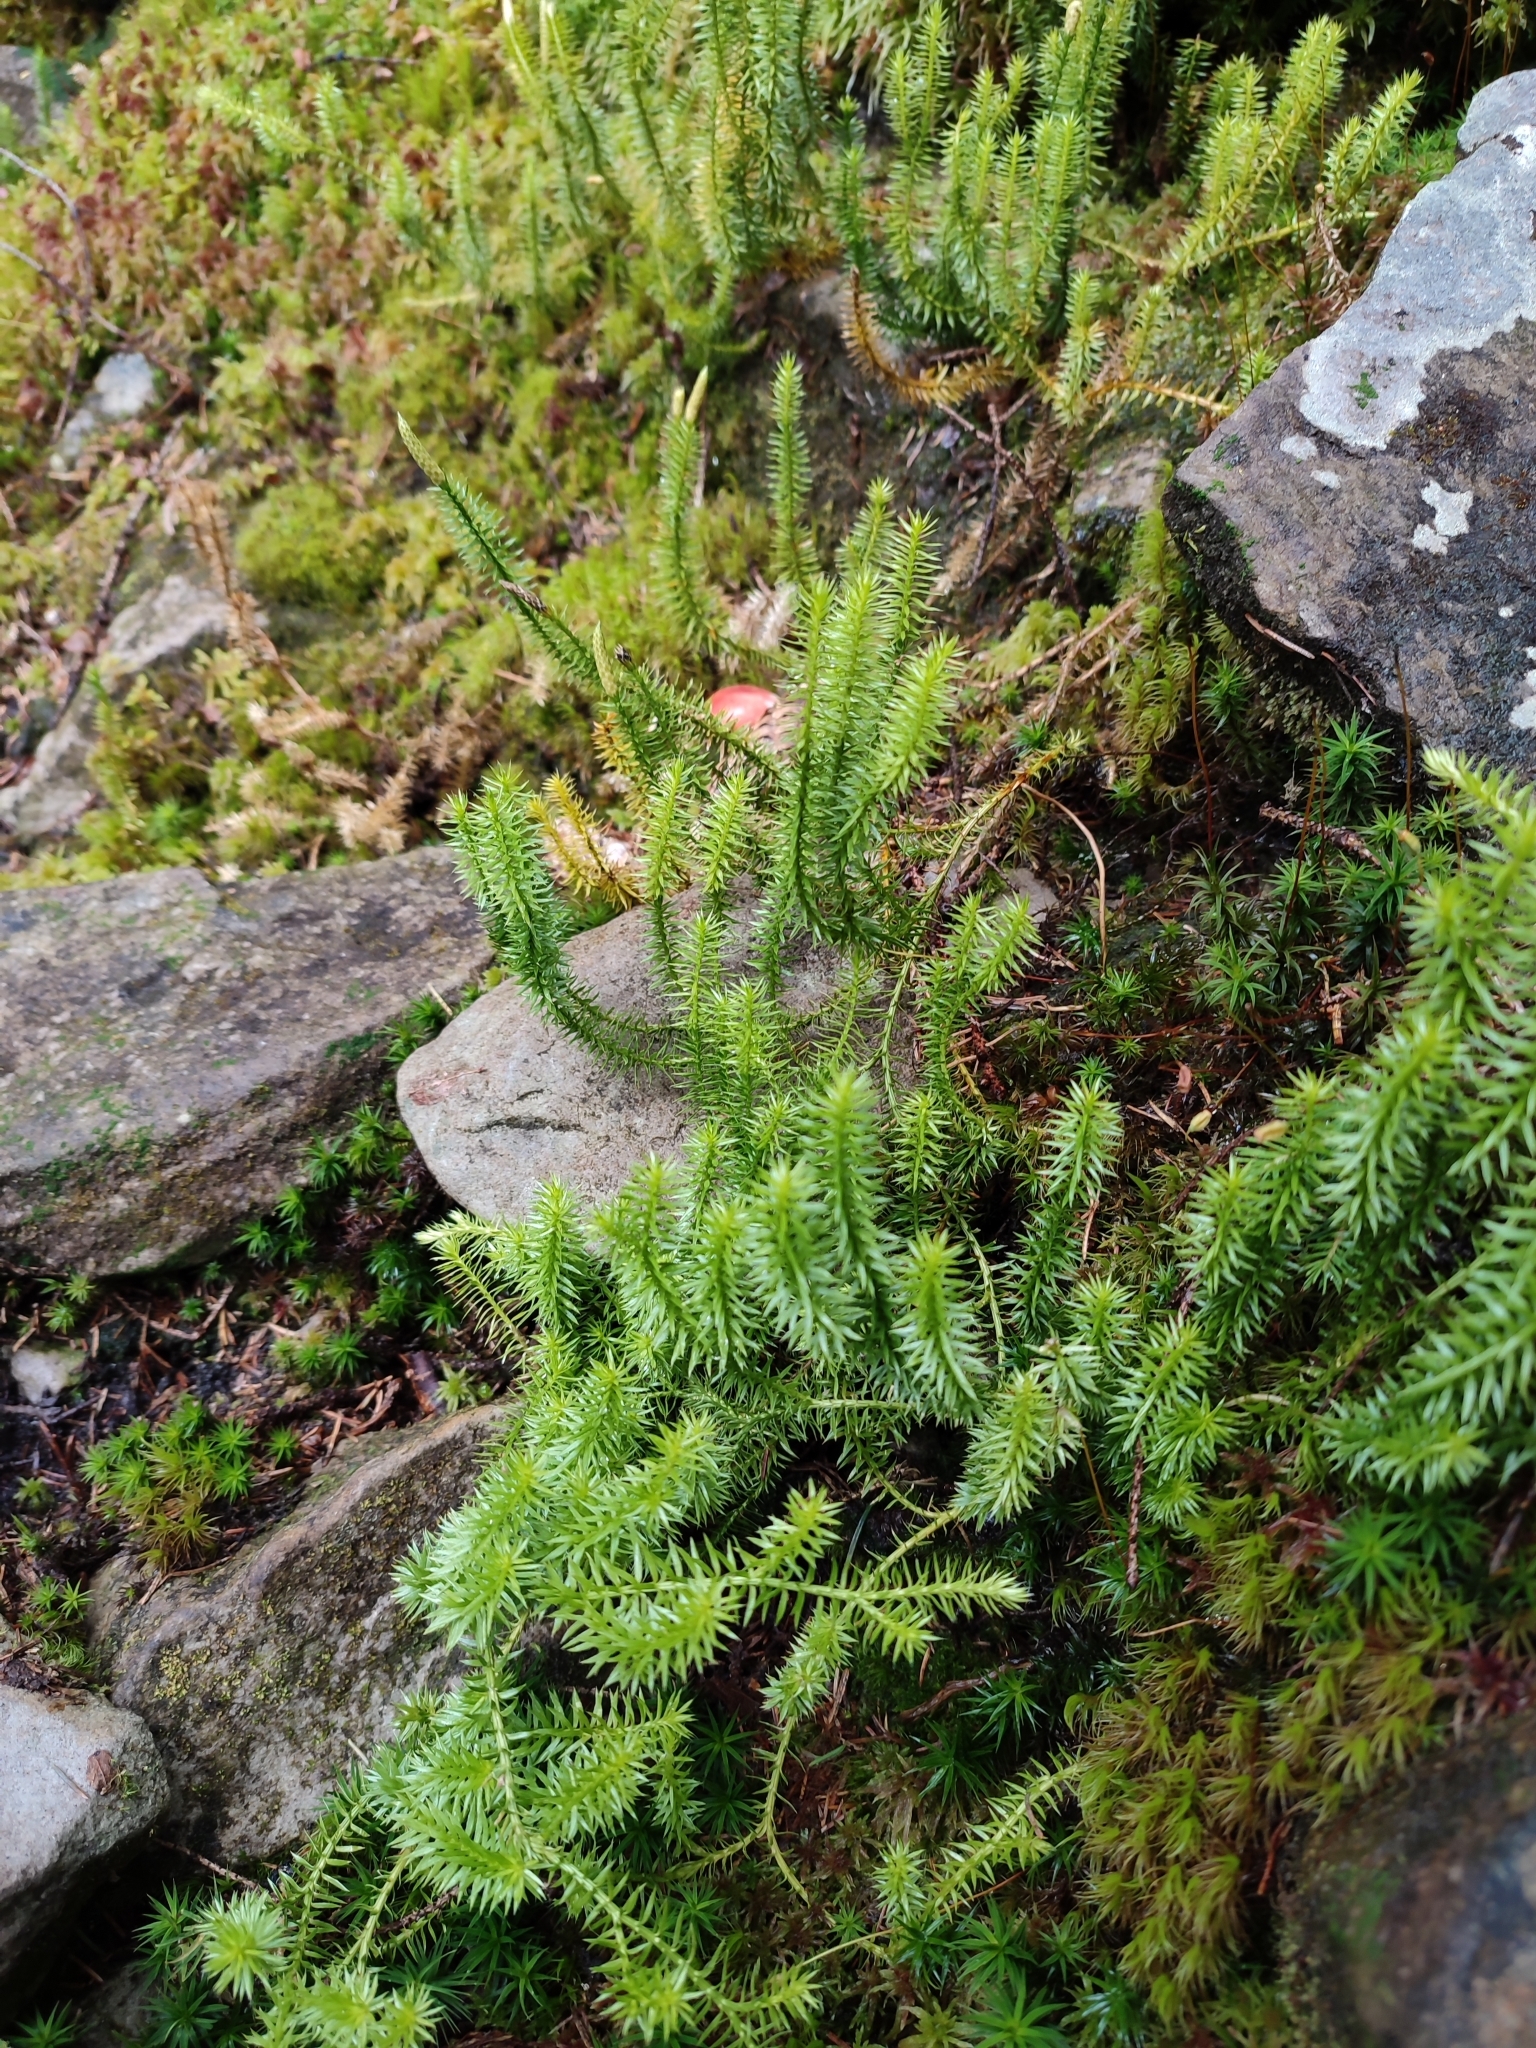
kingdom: Plantae
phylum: Tracheophyta
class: Lycopodiopsida
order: Lycopodiales
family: Lycopodiaceae
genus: Spinulum
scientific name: Spinulum annotinum
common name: Interrupted club-moss
